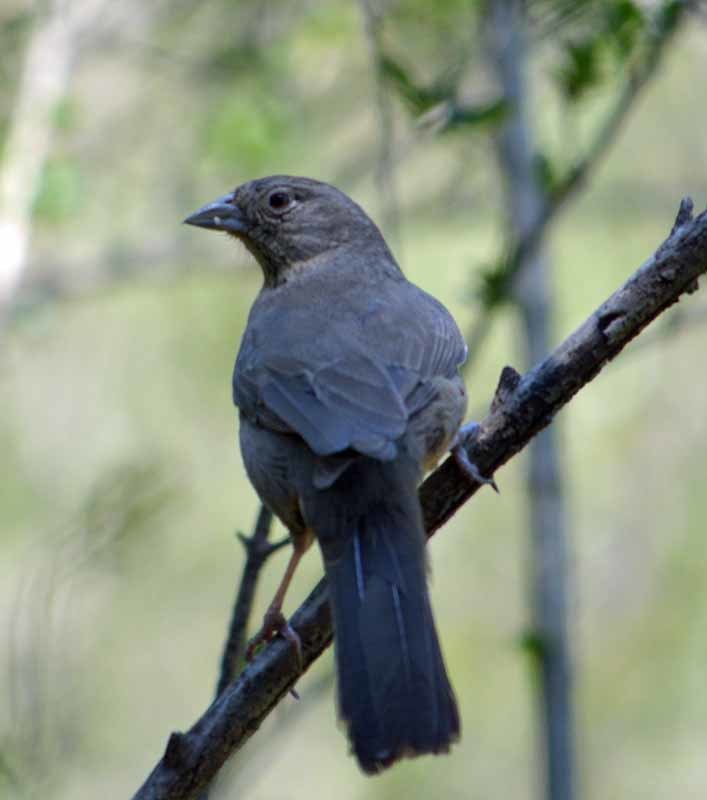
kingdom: Animalia
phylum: Chordata
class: Aves
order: Passeriformes
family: Passerellidae
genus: Melozone
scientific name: Melozone fusca
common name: Canyon towhee
